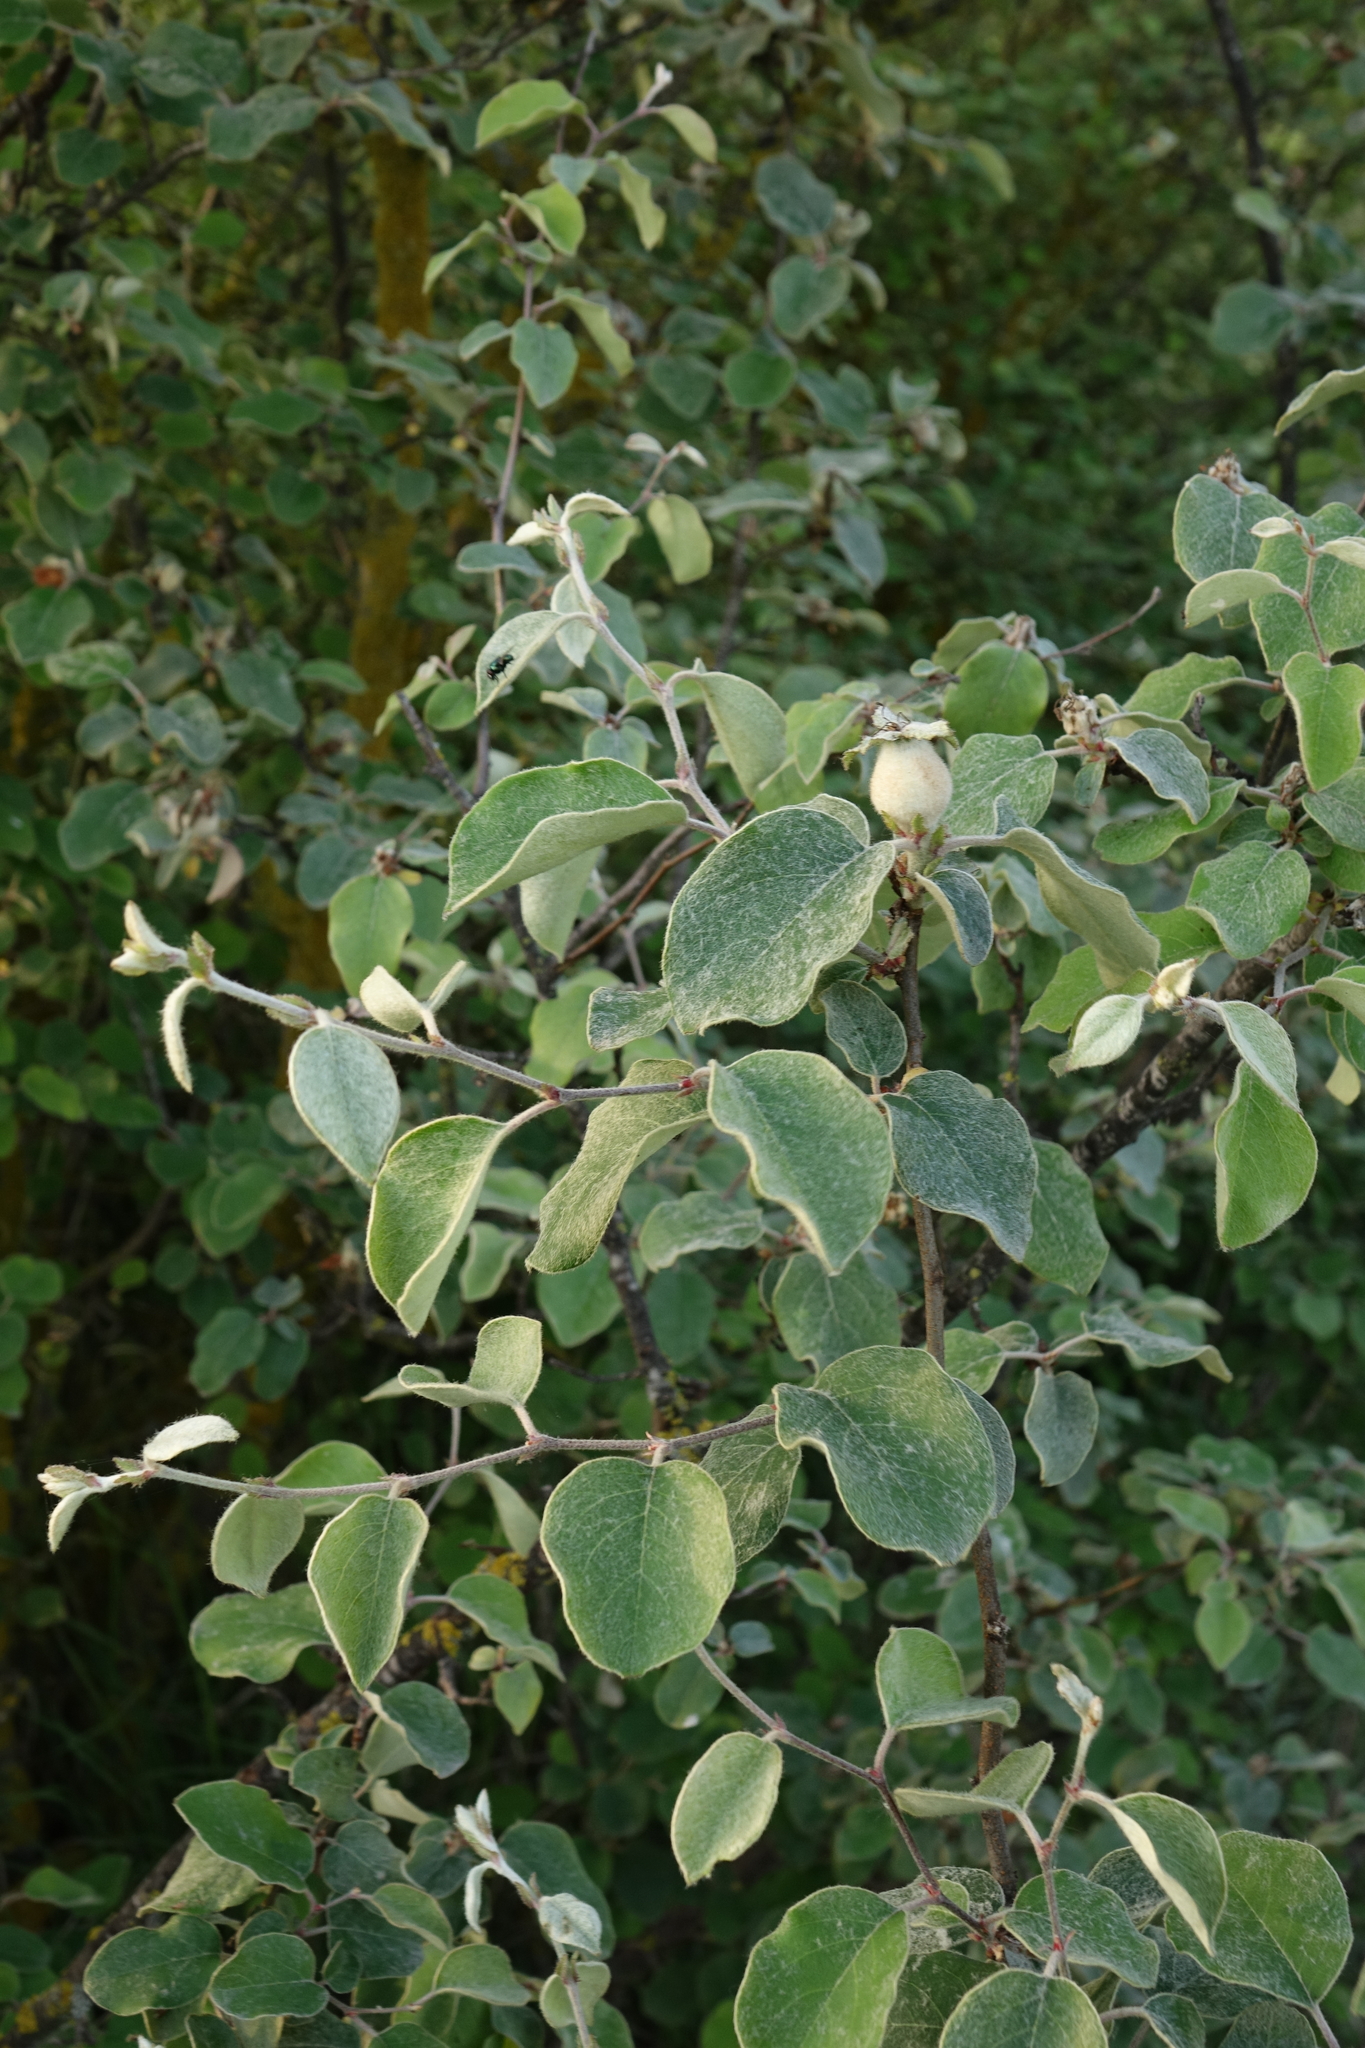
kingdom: Plantae
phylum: Tracheophyta
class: Magnoliopsida
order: Rosales
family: Rosaceae
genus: Cydonia
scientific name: Cydonia oblonga
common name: Quince
